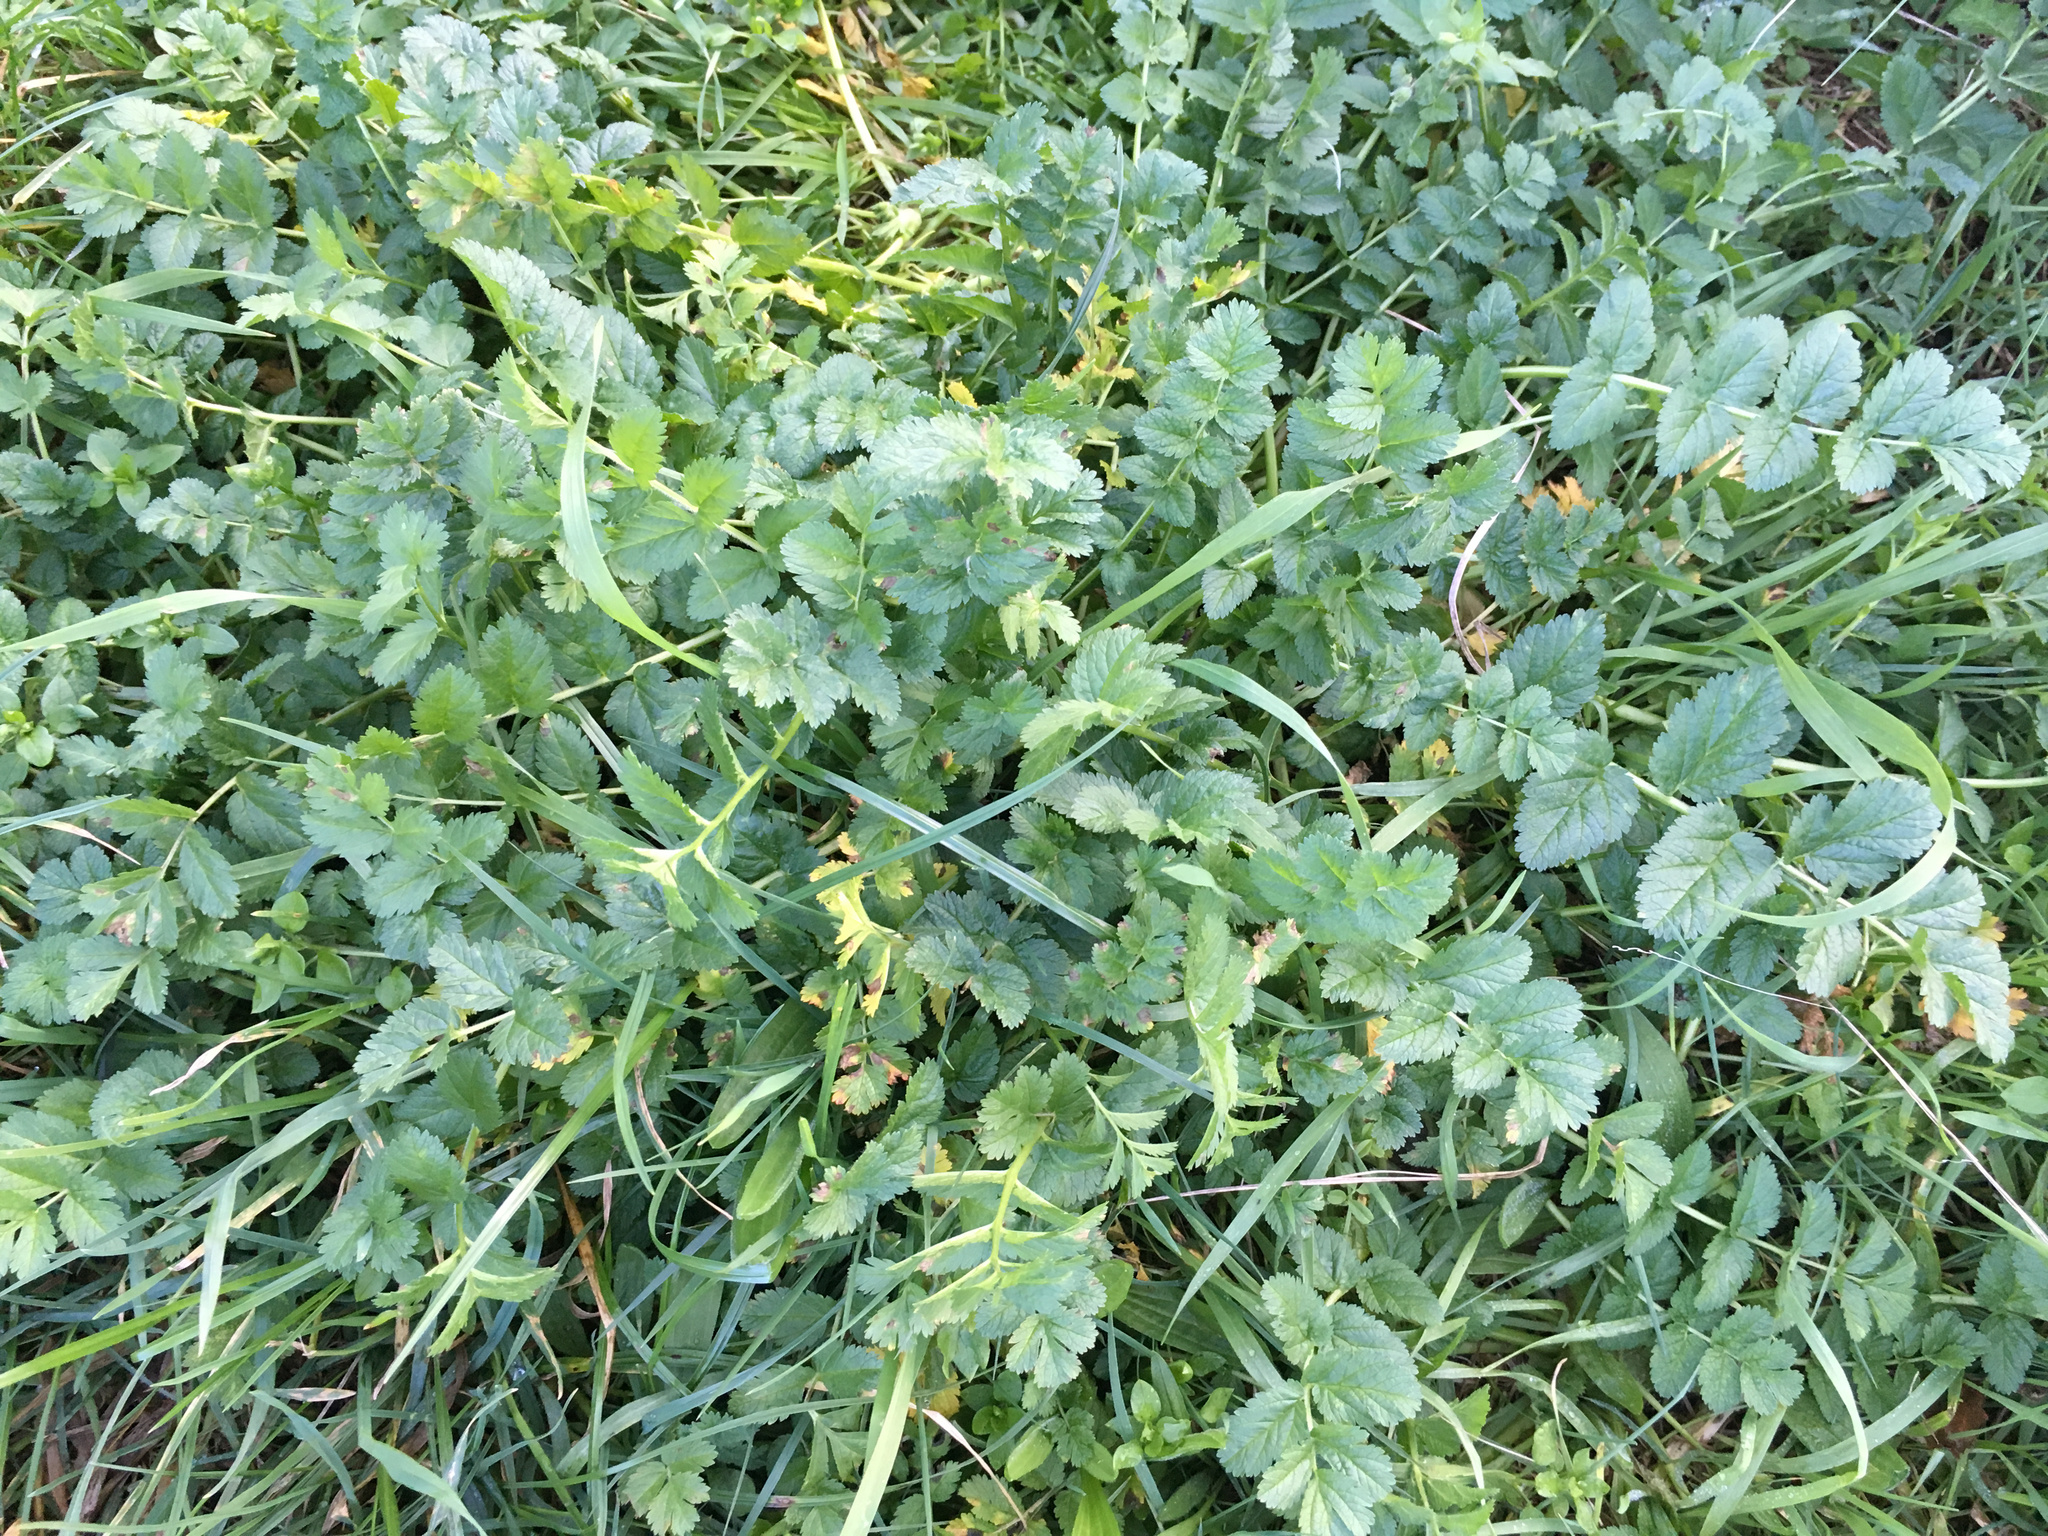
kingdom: Plantae
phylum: Tracheophyta
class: Magnoliopsida
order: Geraniales
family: Geraniaceae
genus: Erodium
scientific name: Erodium moschatum
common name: Musk stork's-bill
